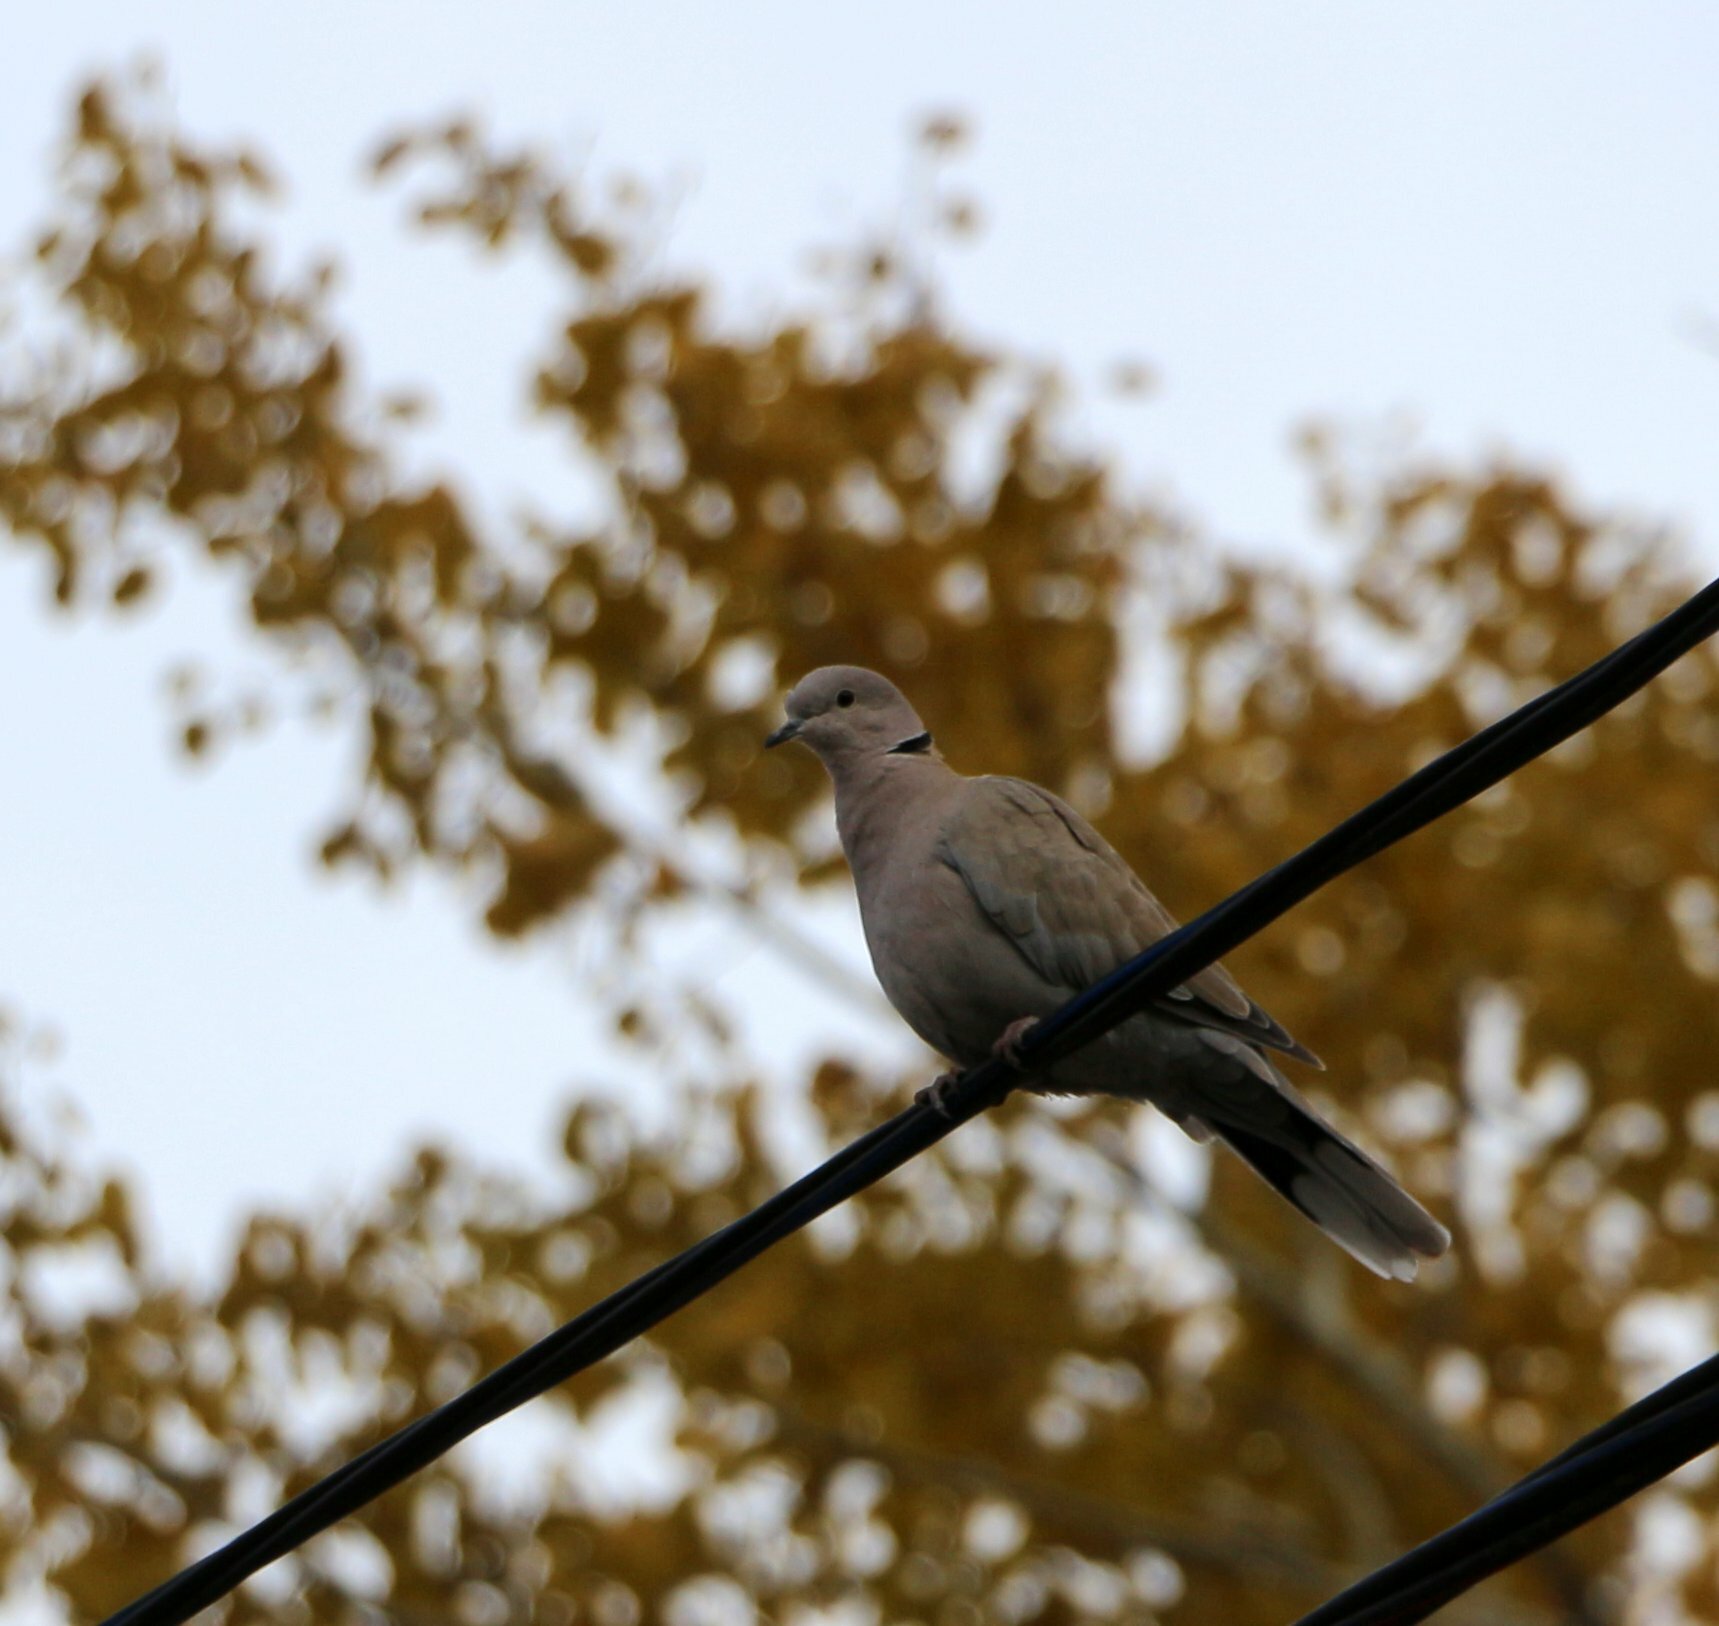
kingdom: Animalia
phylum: Chordata
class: Aves
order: Columbiformes
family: Columbidae
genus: Streptopelia
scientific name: Streptopelia decaocto
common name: Eurasian collared dove
